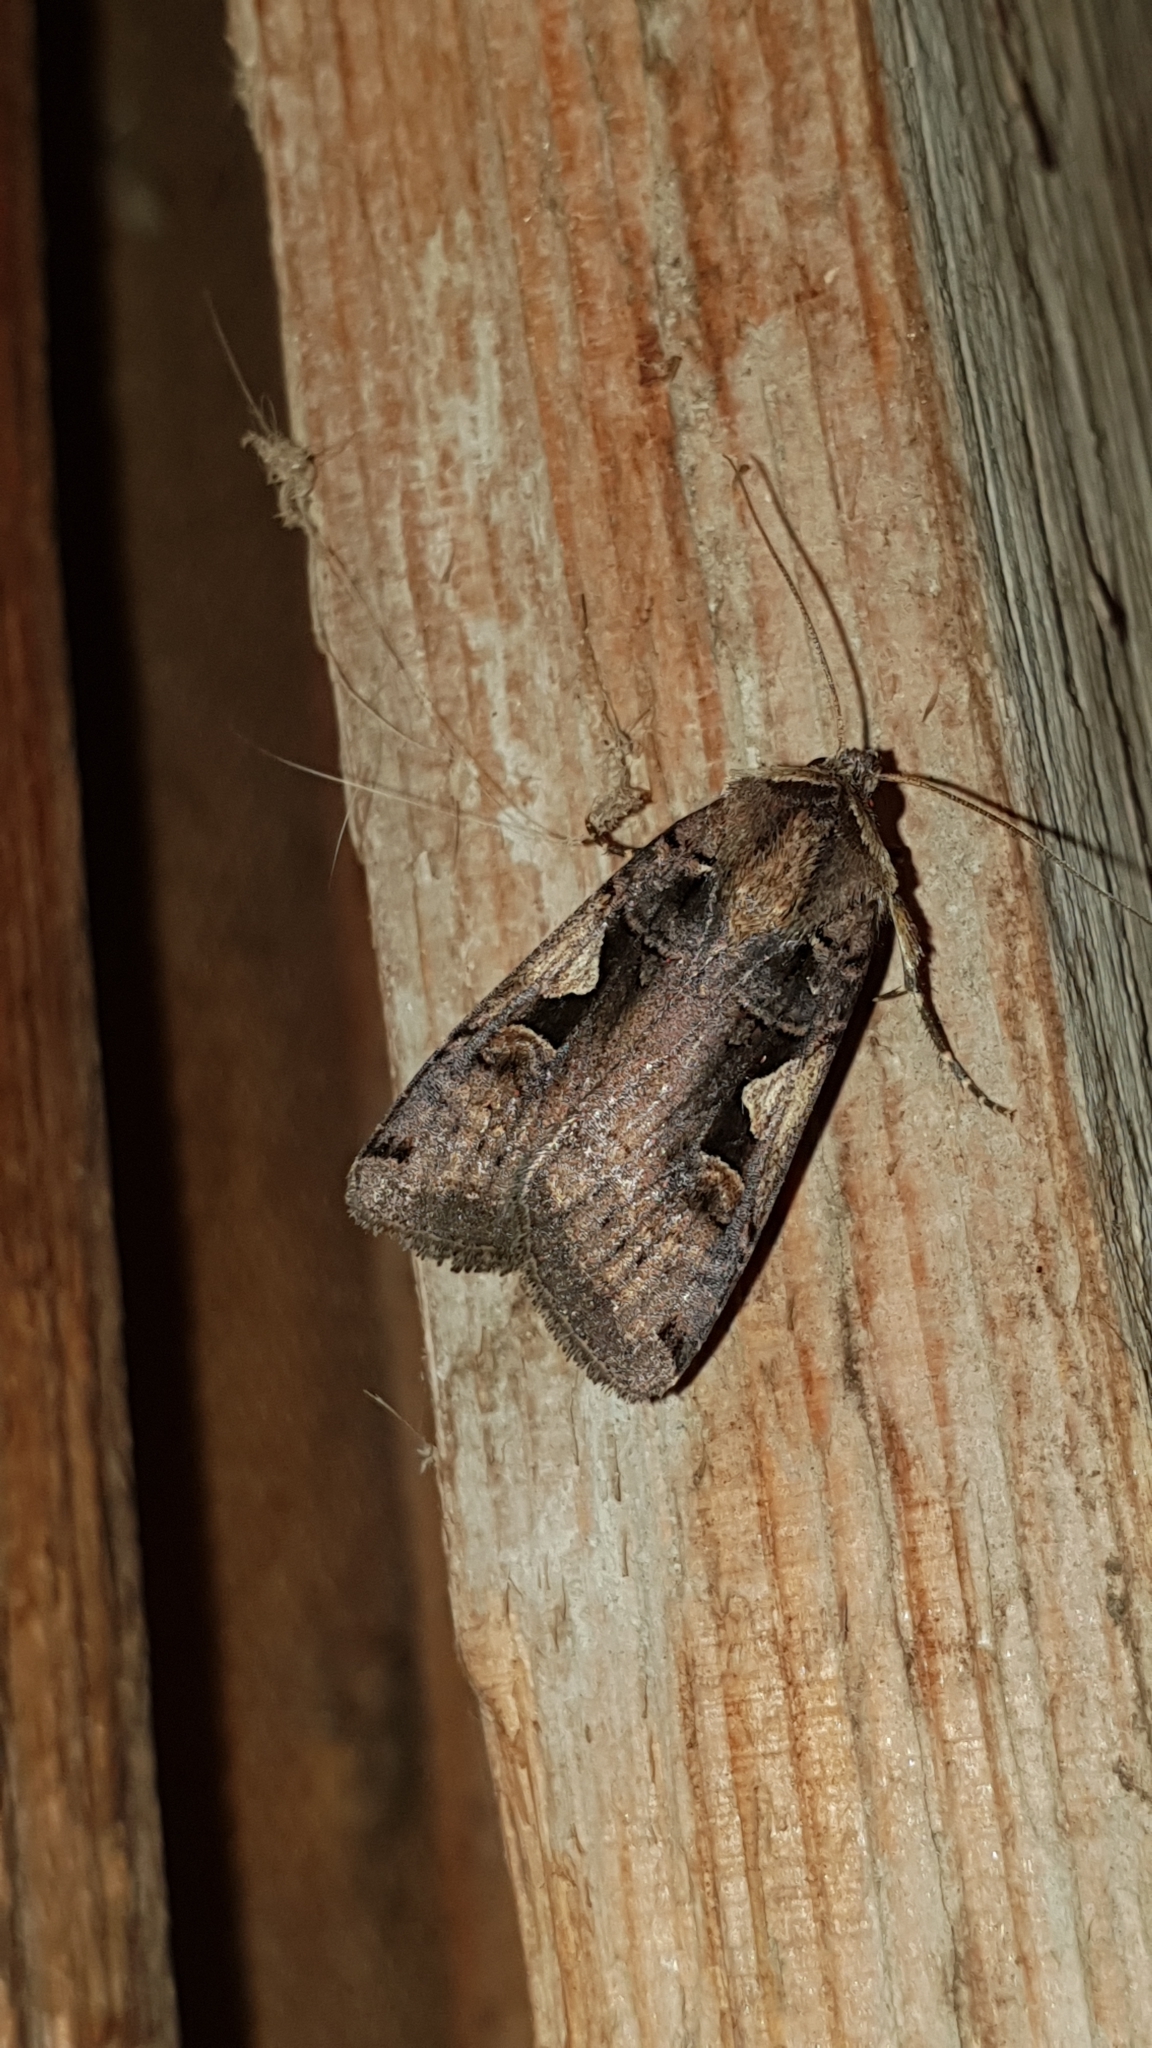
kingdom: Animalia
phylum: Arthropoda
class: Insecta
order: Lepidoptera
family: Noctuidae
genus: Xestia
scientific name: Xestia c-nigrum
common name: Setaceous hebrew character
